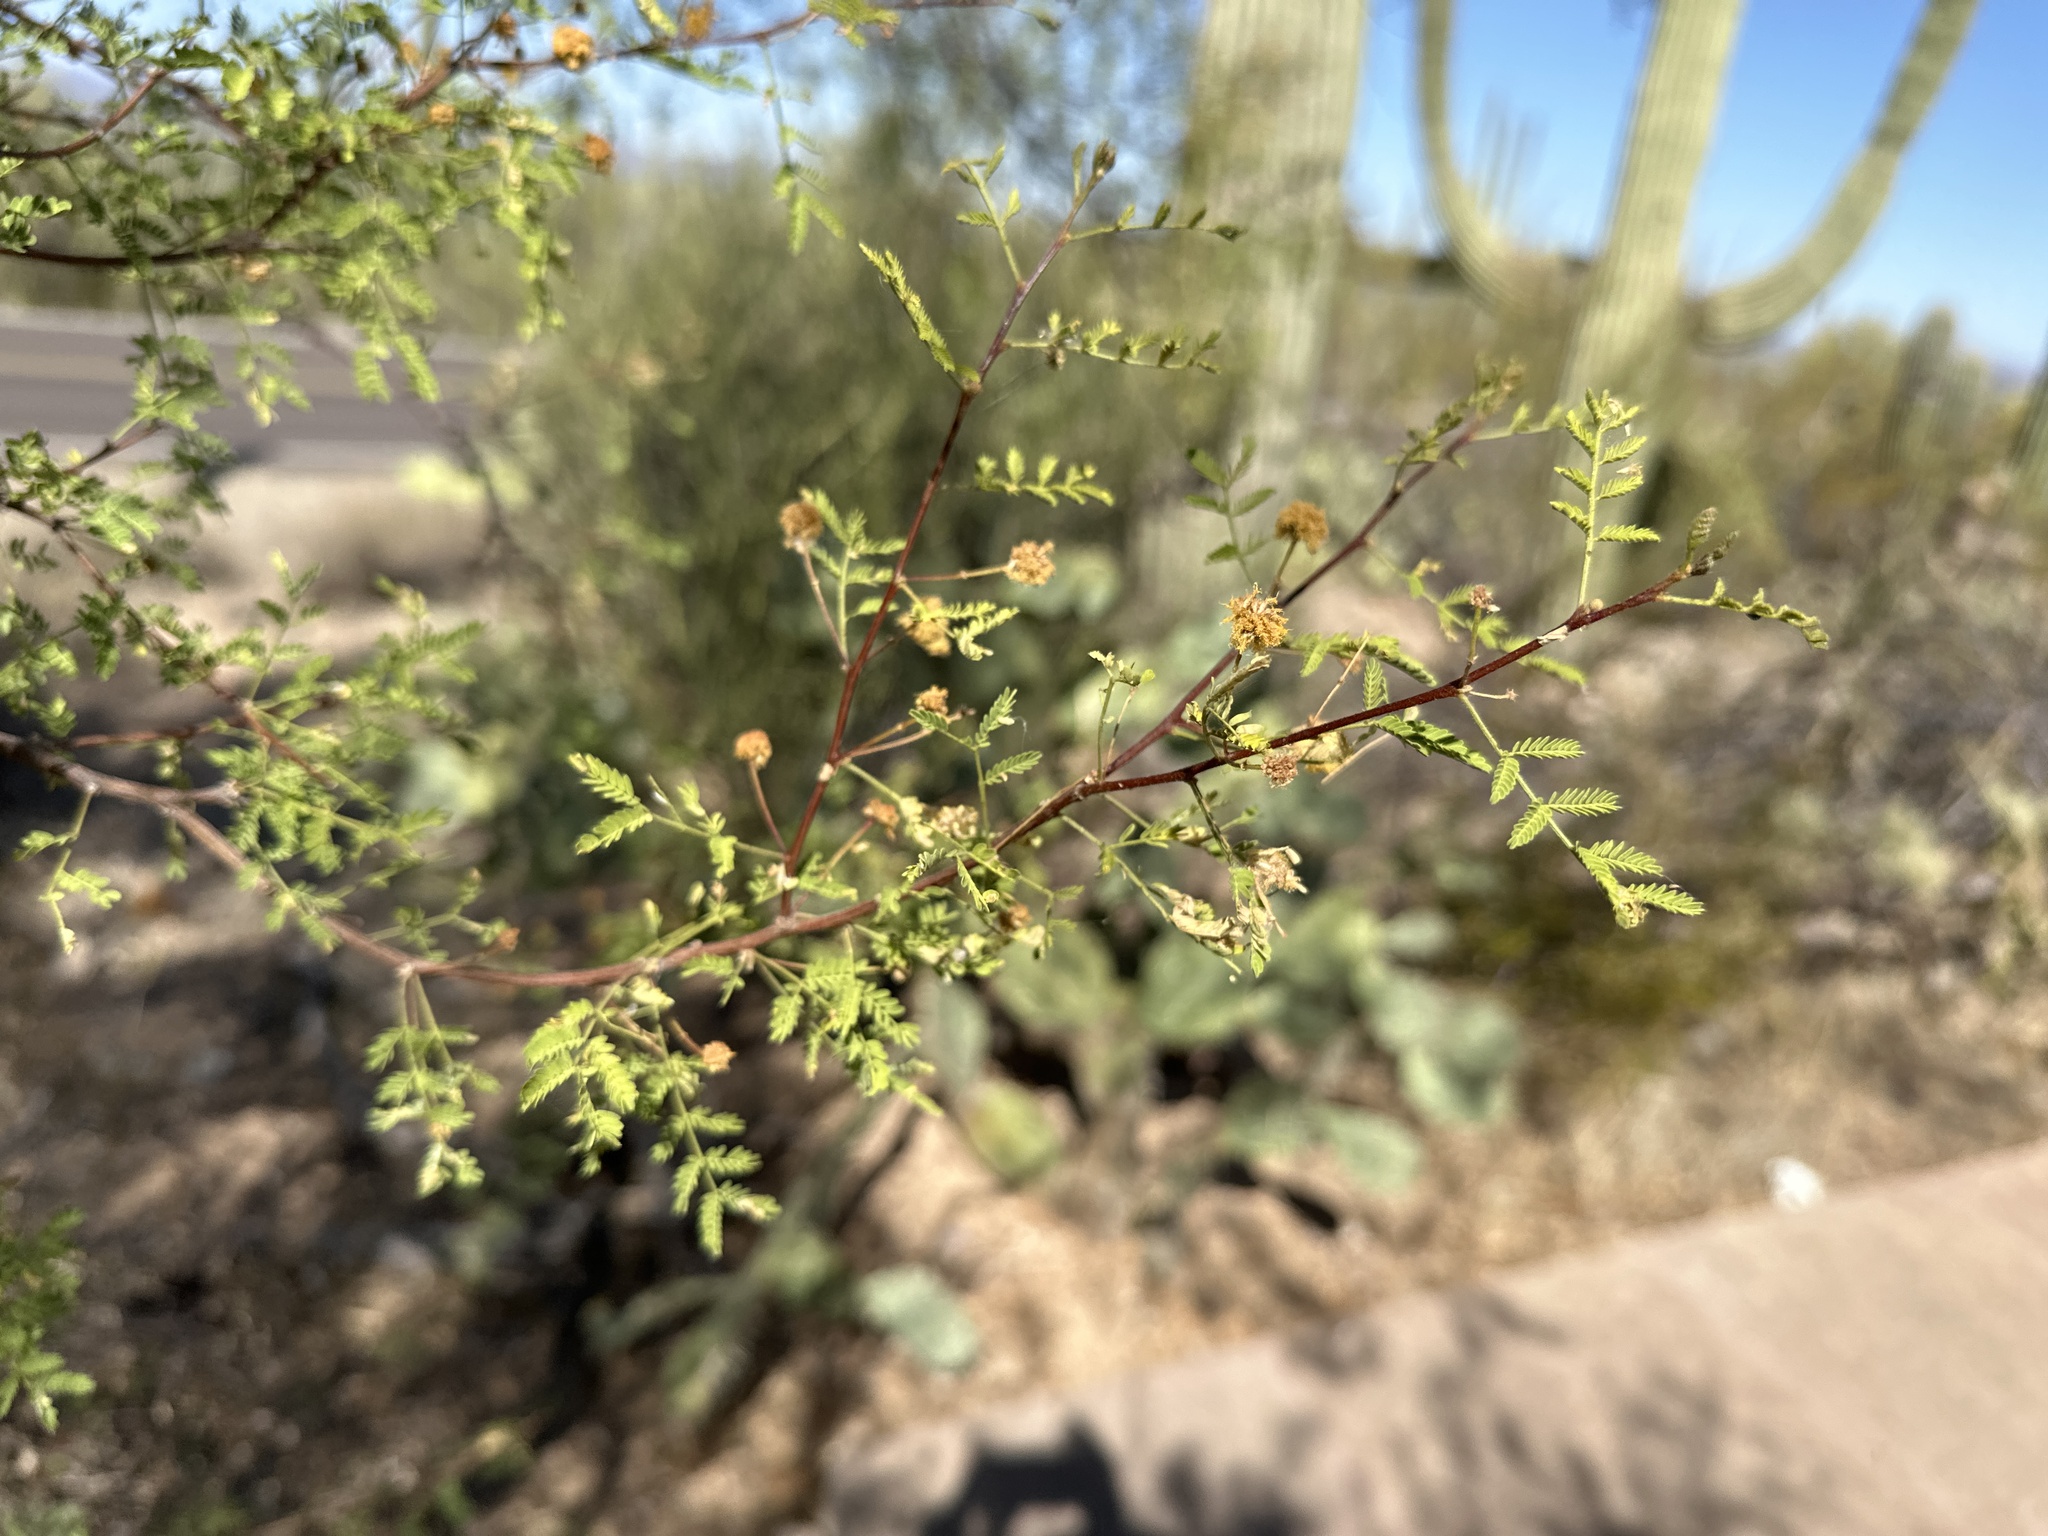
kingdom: Plantae
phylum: Tracheophyta
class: Magnoliopsida
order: Fabales
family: Fabaceae
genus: Vachellia
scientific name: Vachellia constricta
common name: Mescat acacia
